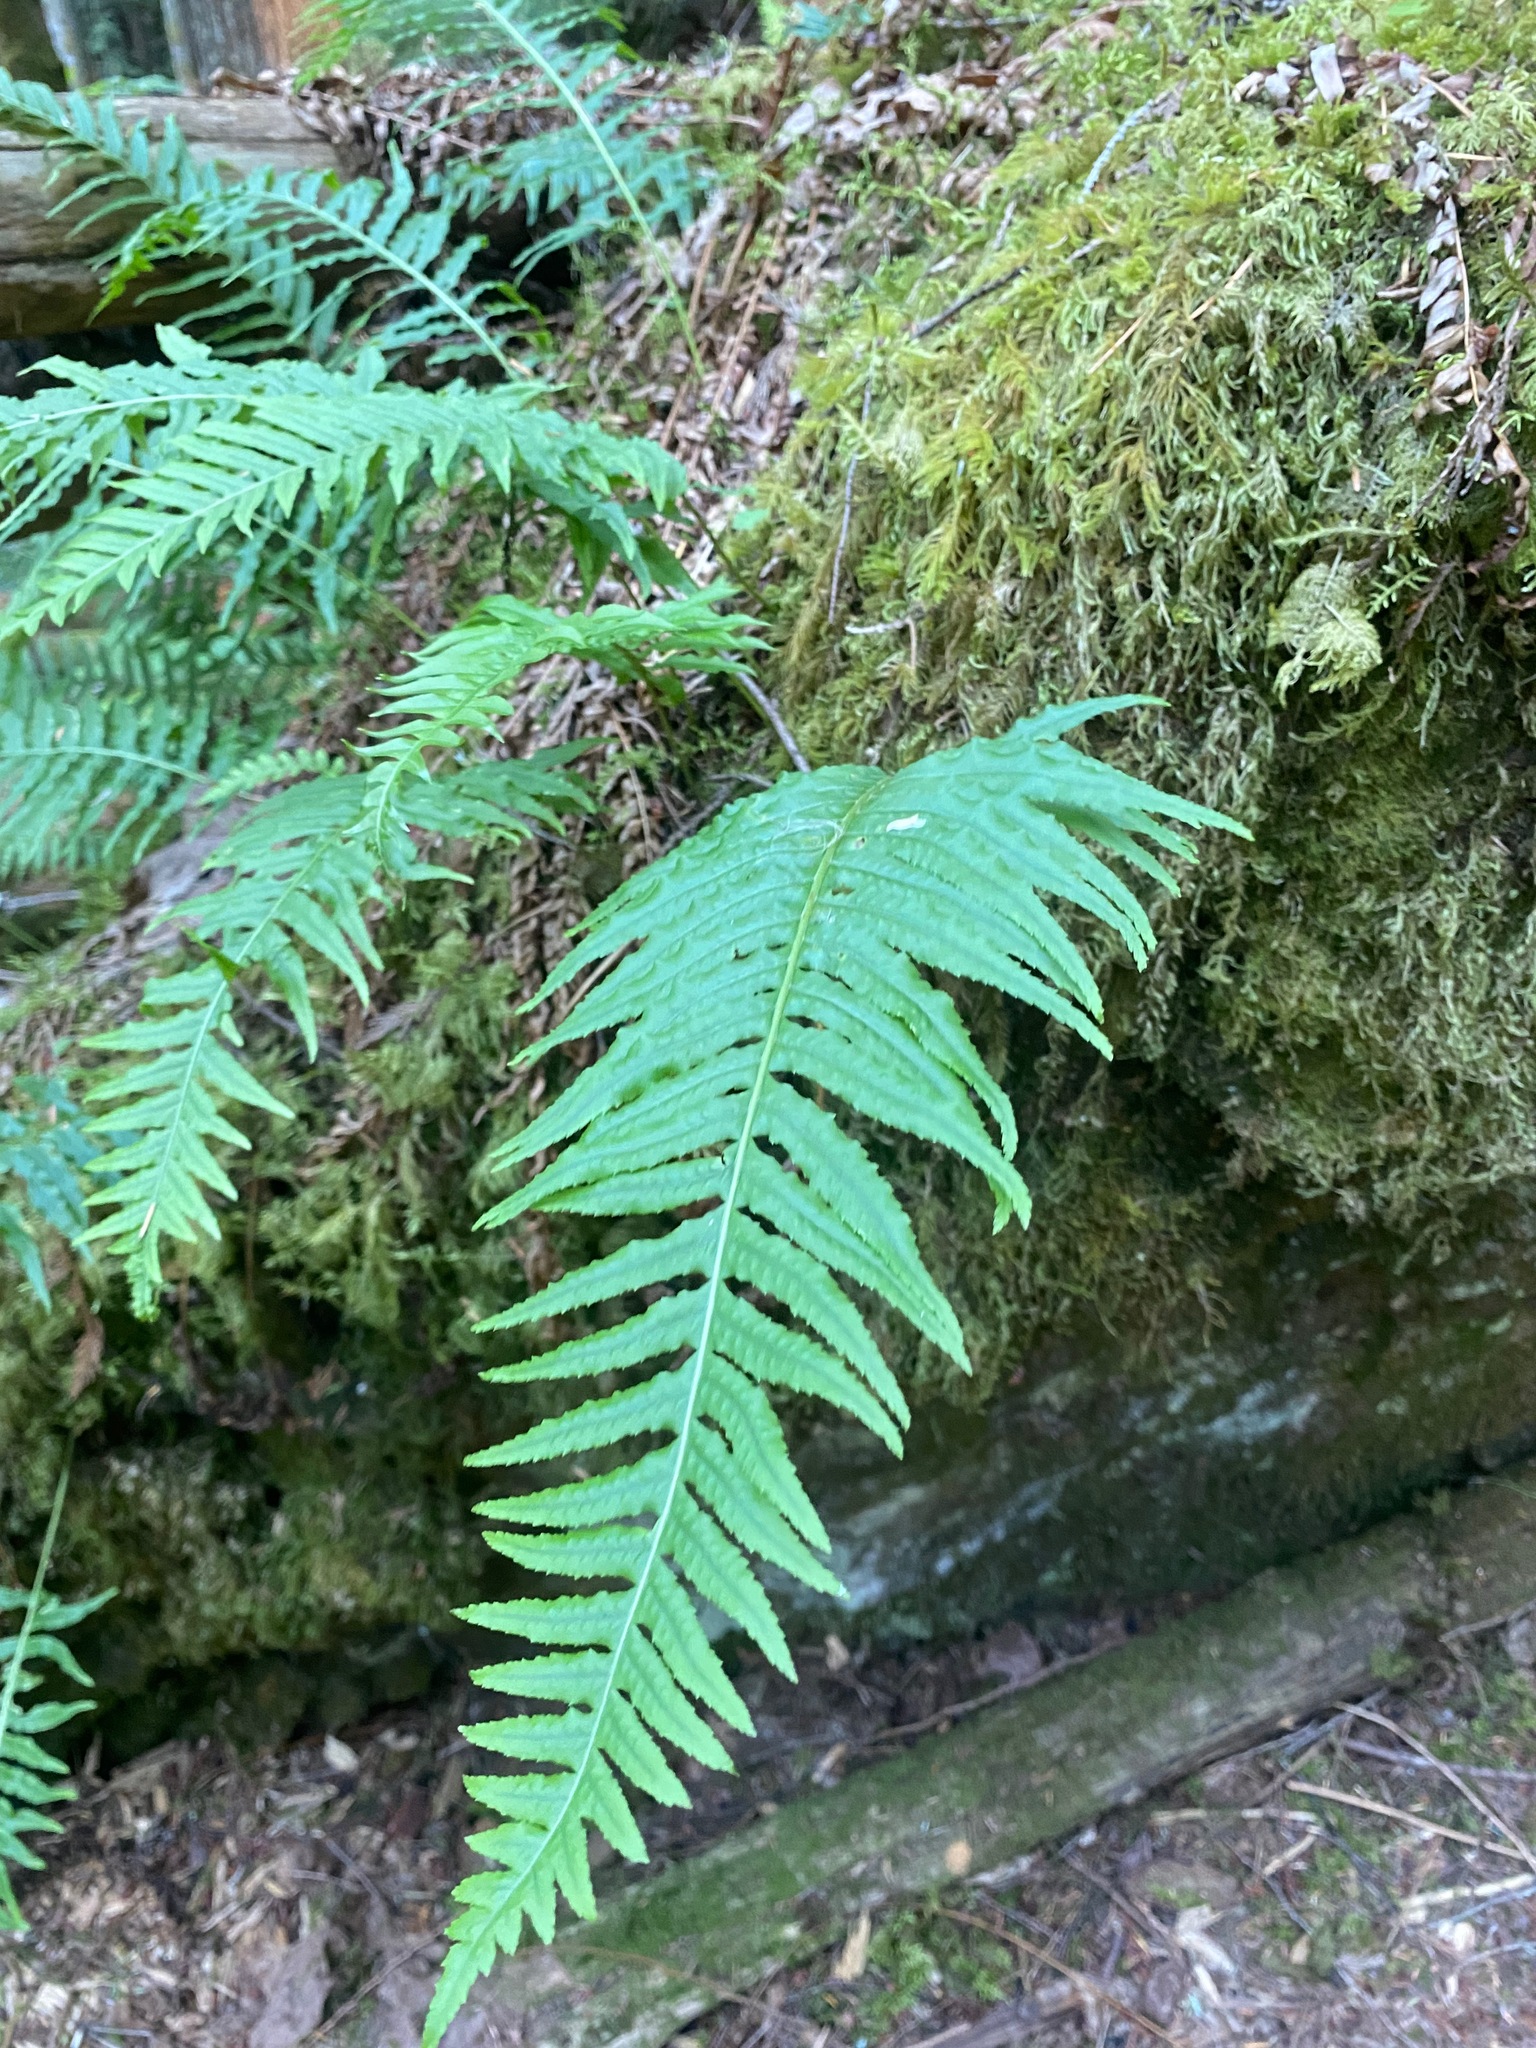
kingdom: Plantae
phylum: Tracheophyta
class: Polypodiopsida
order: Polypodiales
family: Polypodiaceae
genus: Polypodium
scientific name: Polypodium glycyrrhiza
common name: Licorice fern
